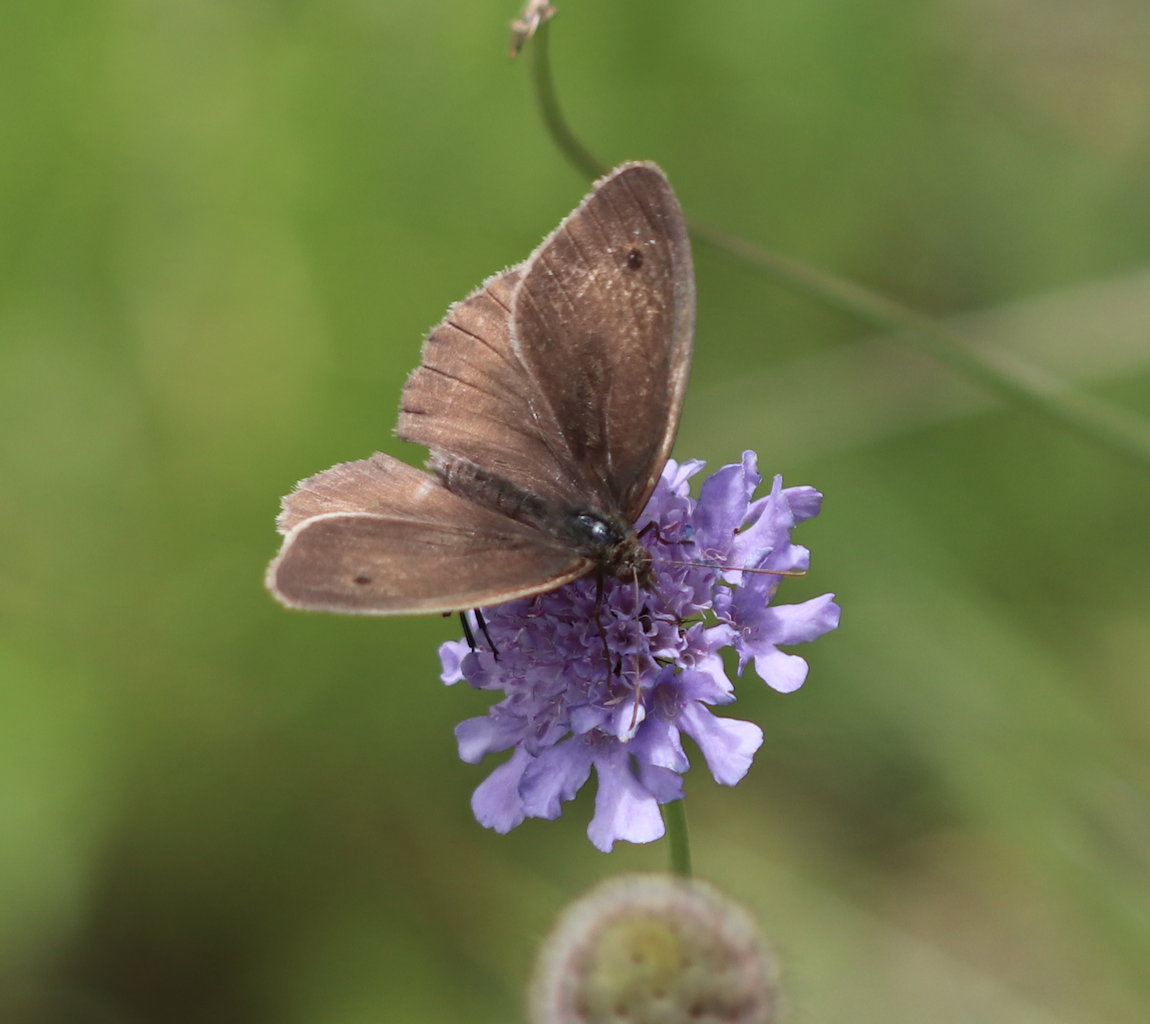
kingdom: Animalia
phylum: Arthropoda
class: Insecta
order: Lepidoptera
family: Nymphalidae
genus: Maniola
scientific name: Maniola jurtina
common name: Meadow brown
